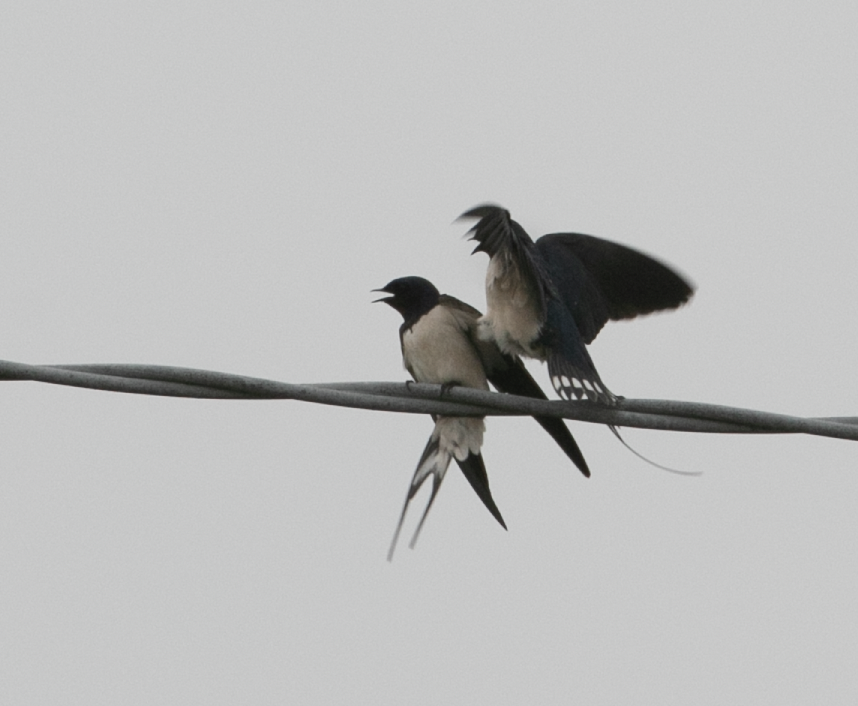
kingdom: Animalia
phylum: Chordata
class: Aves
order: Passeriformes
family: Hirundinidae
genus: Hirundo
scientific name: Hirundo rustica
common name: Barn swallow
